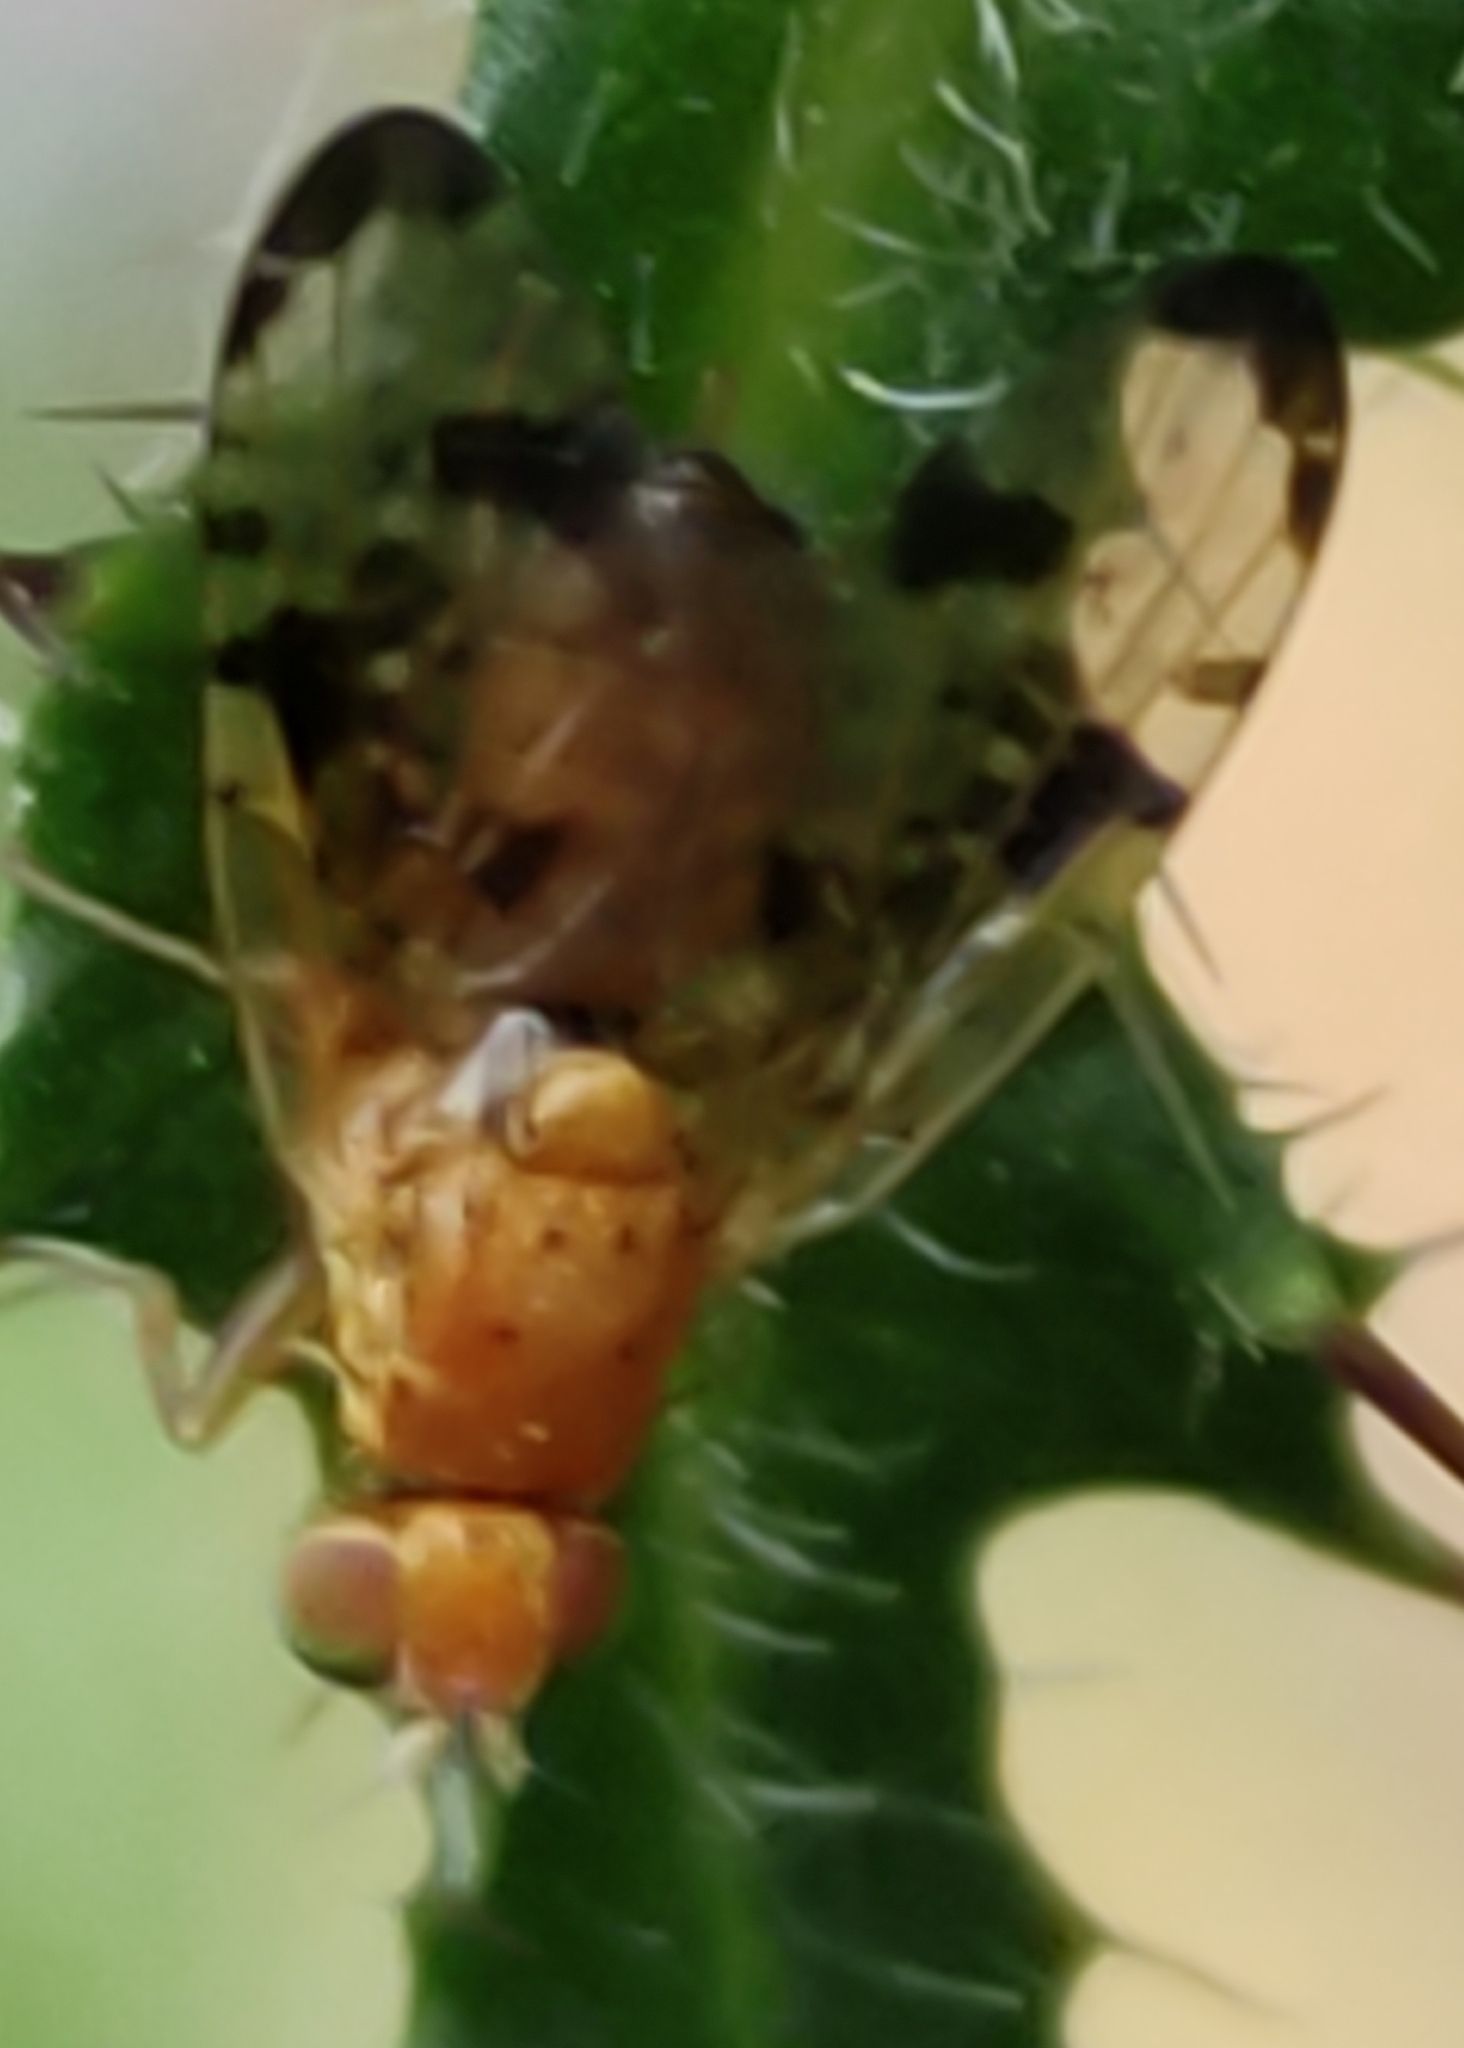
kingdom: Animalia
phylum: Arthropoda
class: Insecta
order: Diptera
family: Tephritidae
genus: Xyphosia
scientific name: Xyphosia miliaria
